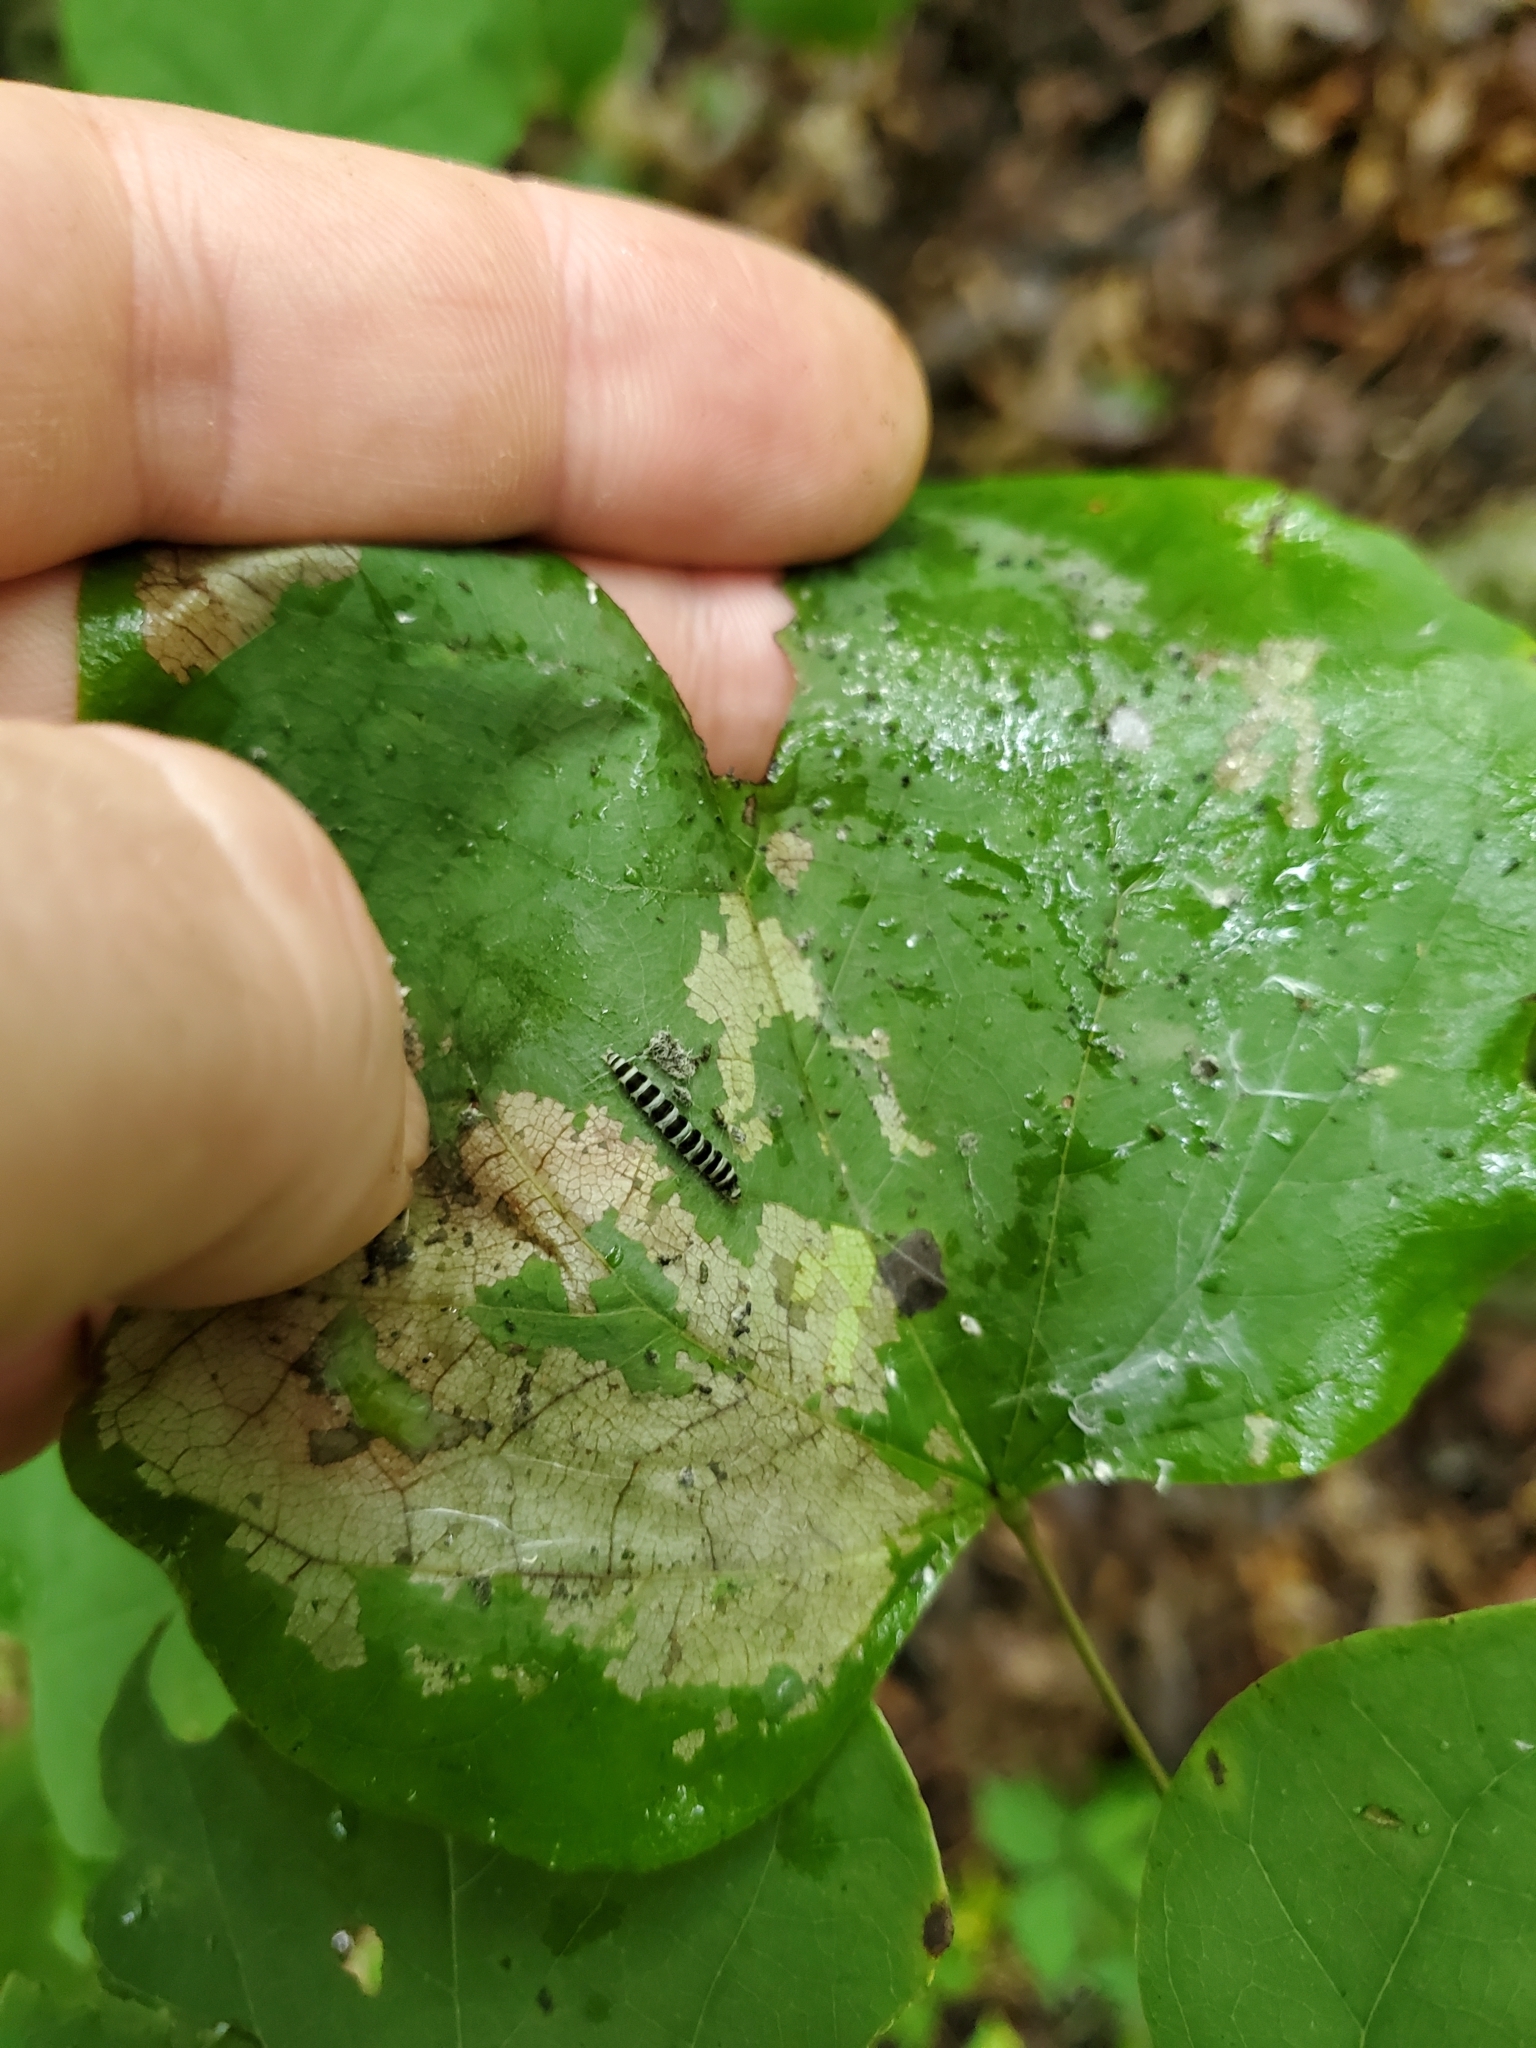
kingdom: Animalia
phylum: Arthropoda
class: Insecta
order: Lepidoptera
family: Gelechiidae
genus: Fascista
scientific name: Fascista cercerisella
